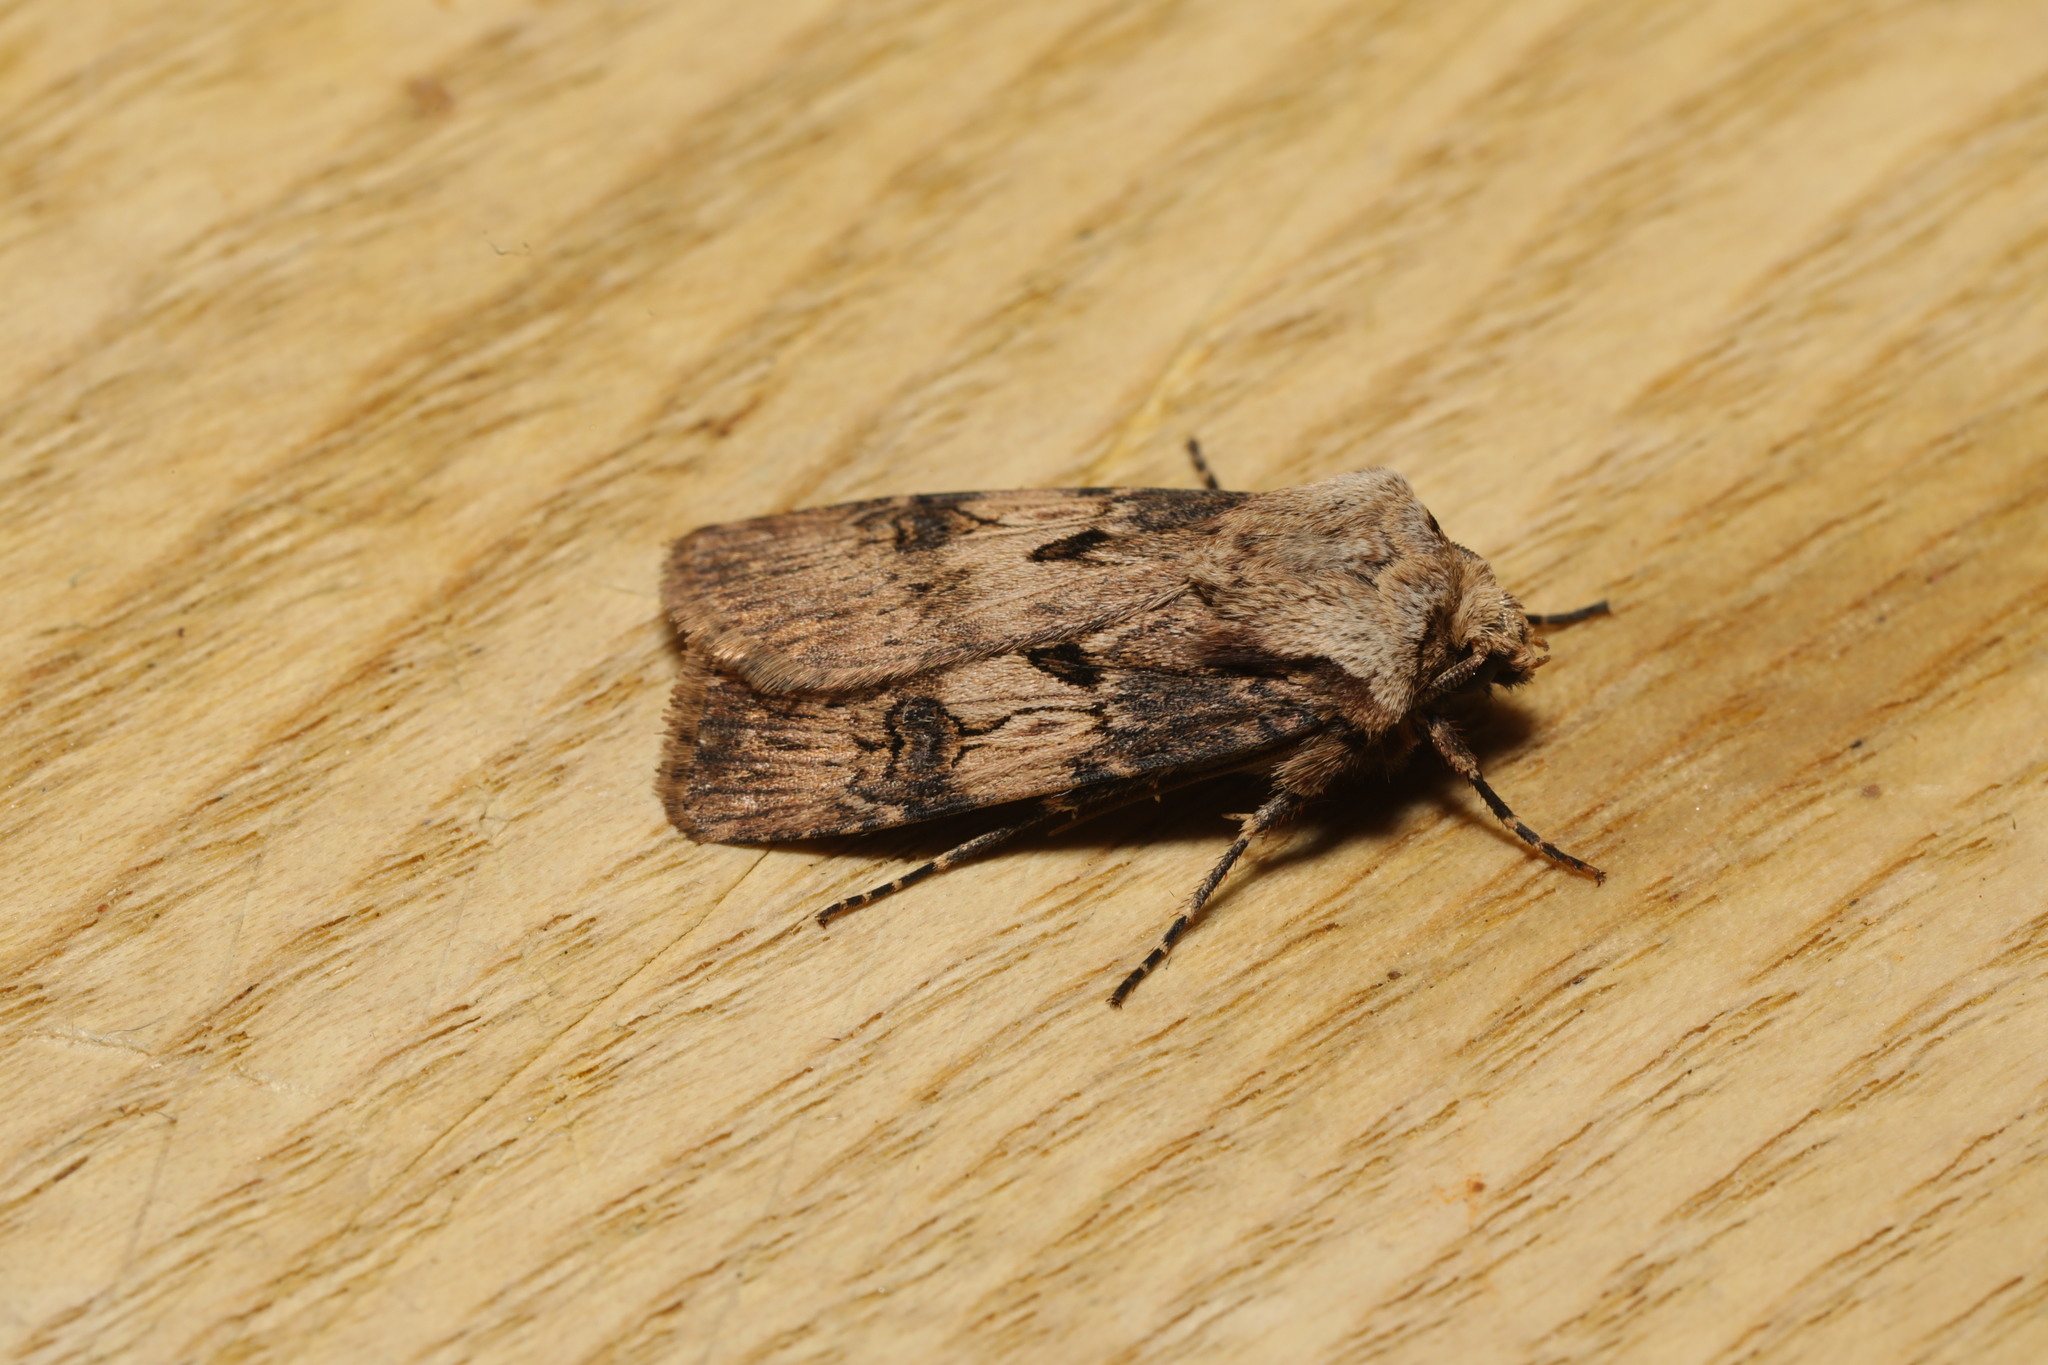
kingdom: Animalia
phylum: Arthropoda
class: Insecta
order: Lepidoptera
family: Noctuidae
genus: Agrotis
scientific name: Agrotis puta
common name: Shuttle-shaped dart
